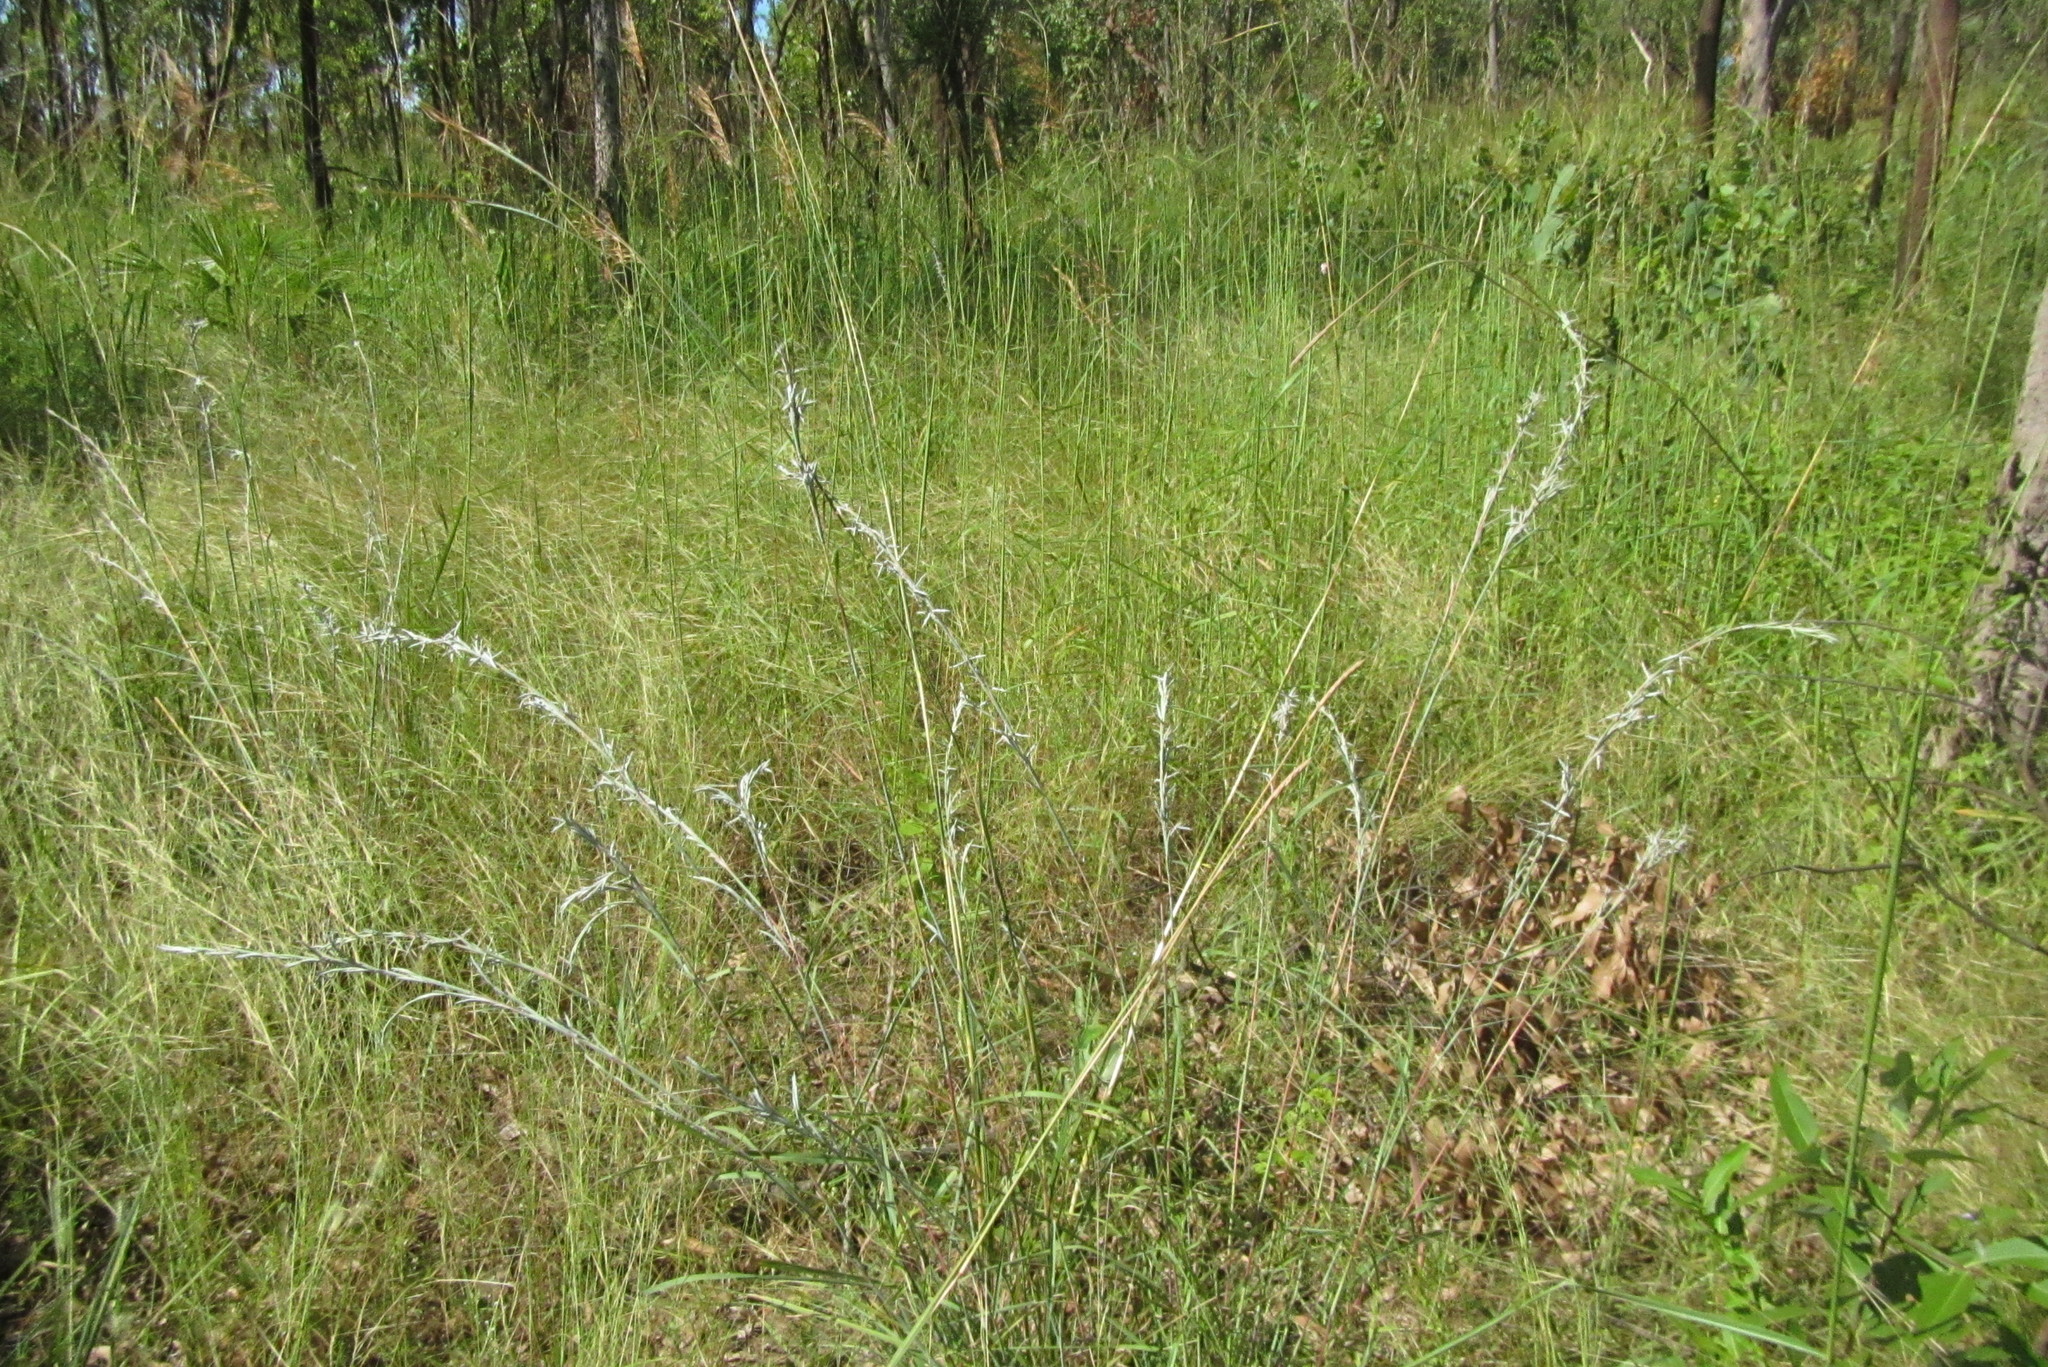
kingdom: Plantae
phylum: Tracheophyta
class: Liliopsida
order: Poales
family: Poaceae
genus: Cymbopogon
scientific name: Cymbopogon refractus
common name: Barbwire grass
